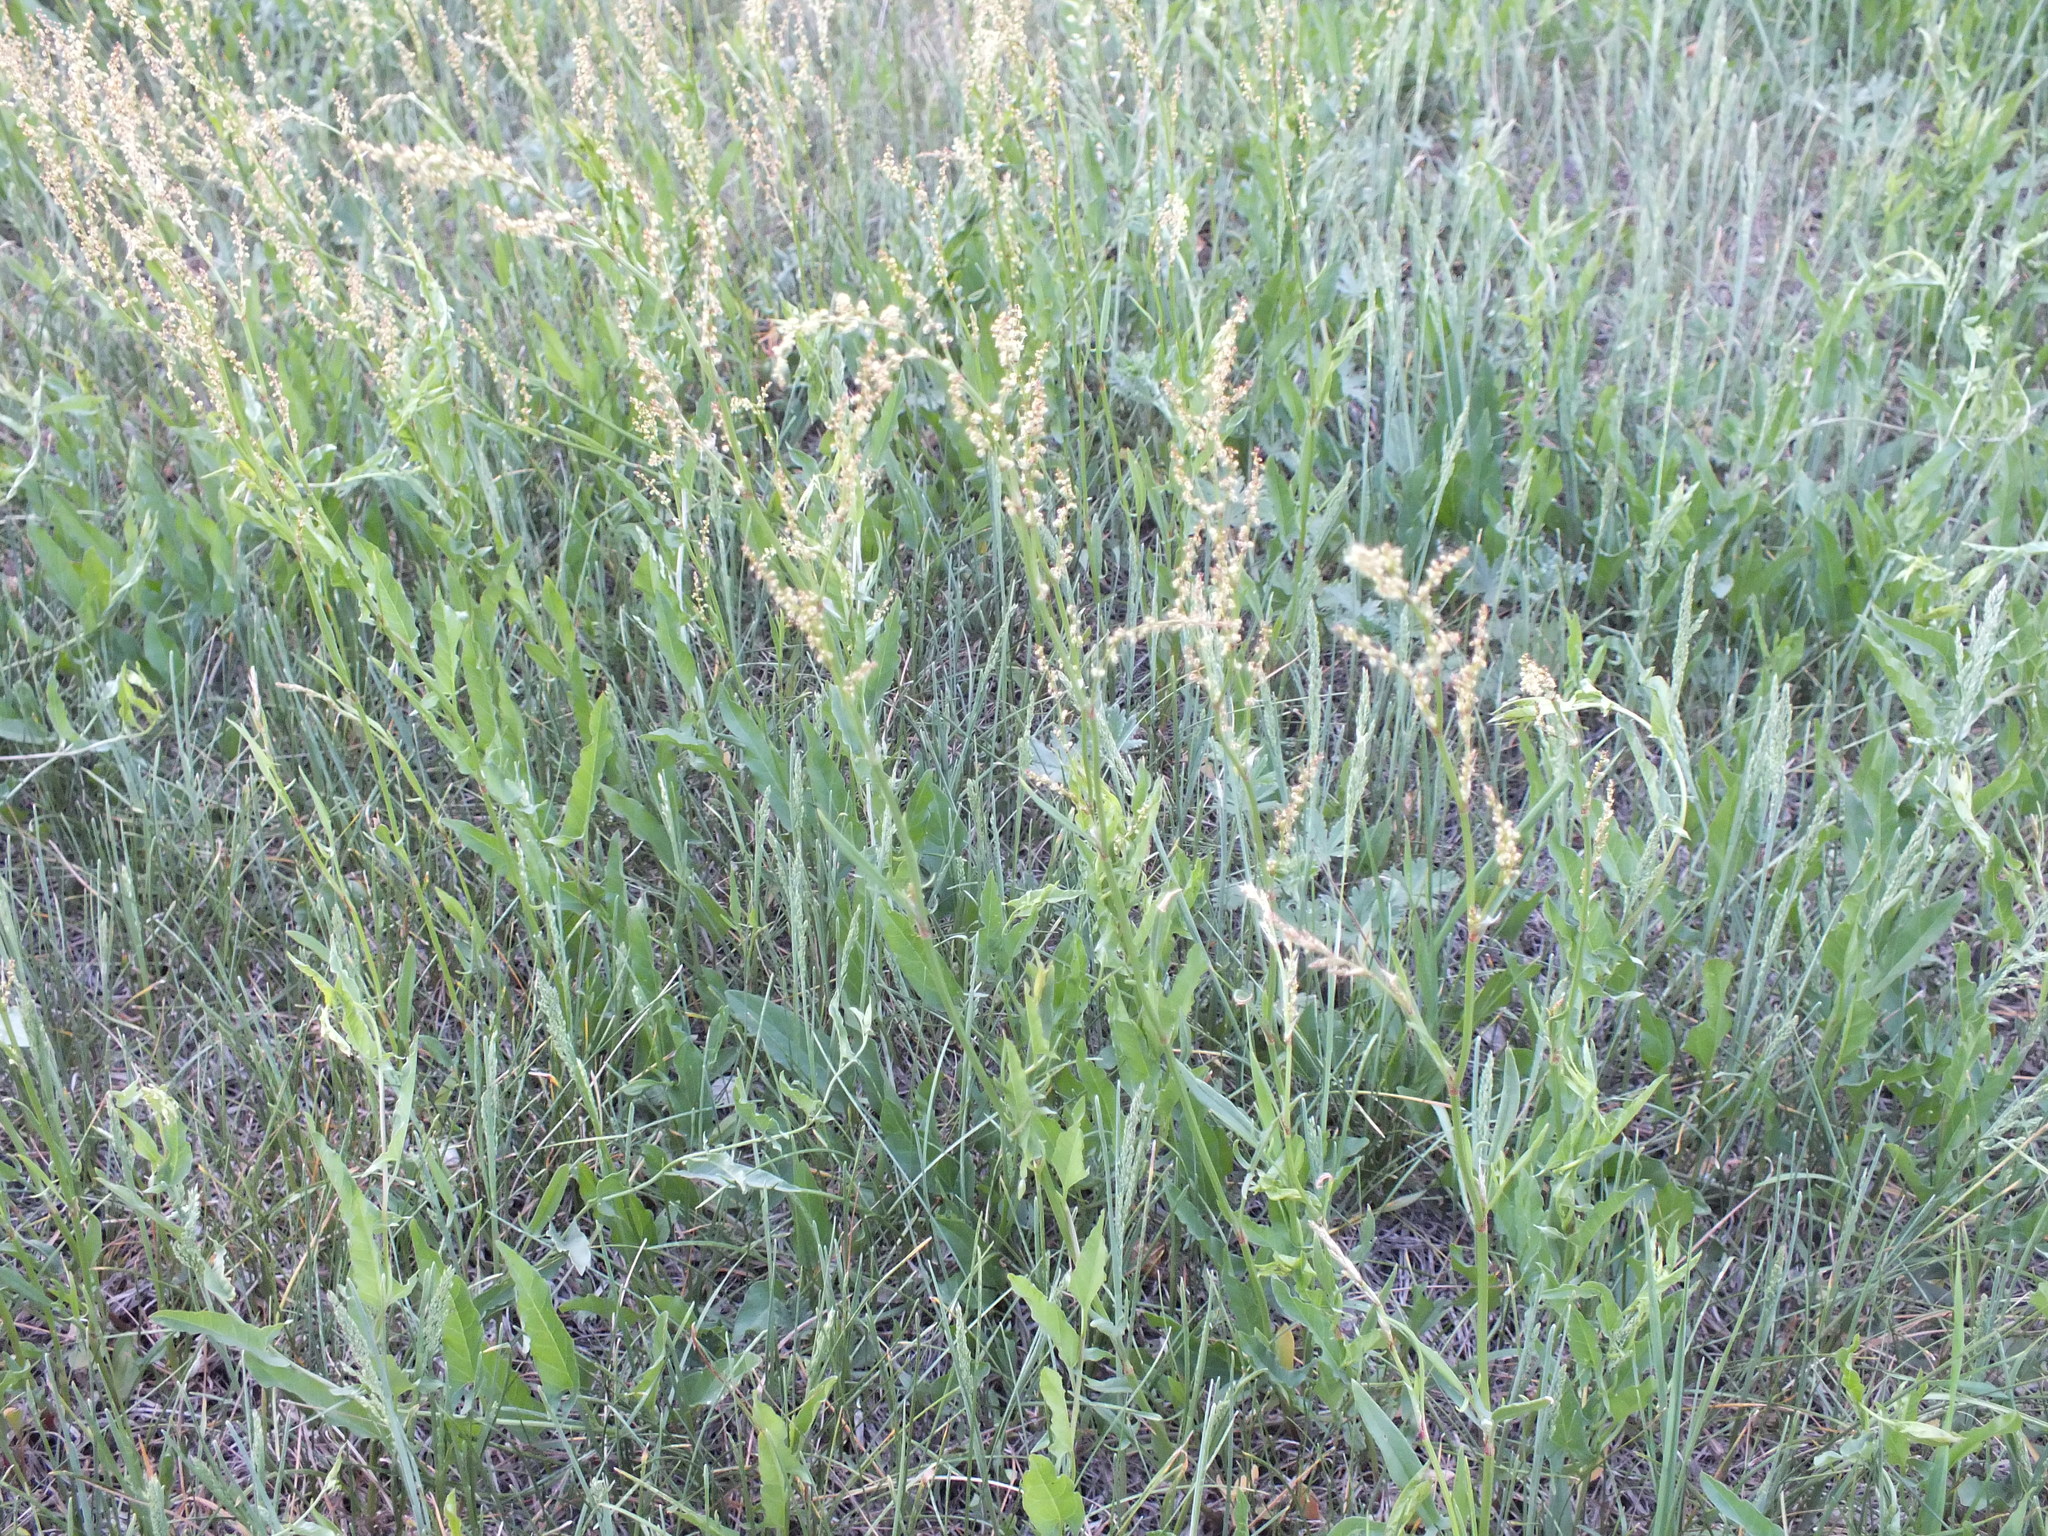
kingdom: Plantae
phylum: Tracheophyta
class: Magnoliopsida
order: Caryophyllales
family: Polygonaceae
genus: Rumex
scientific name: Rumex acetosella
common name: Common sheep sorrel
